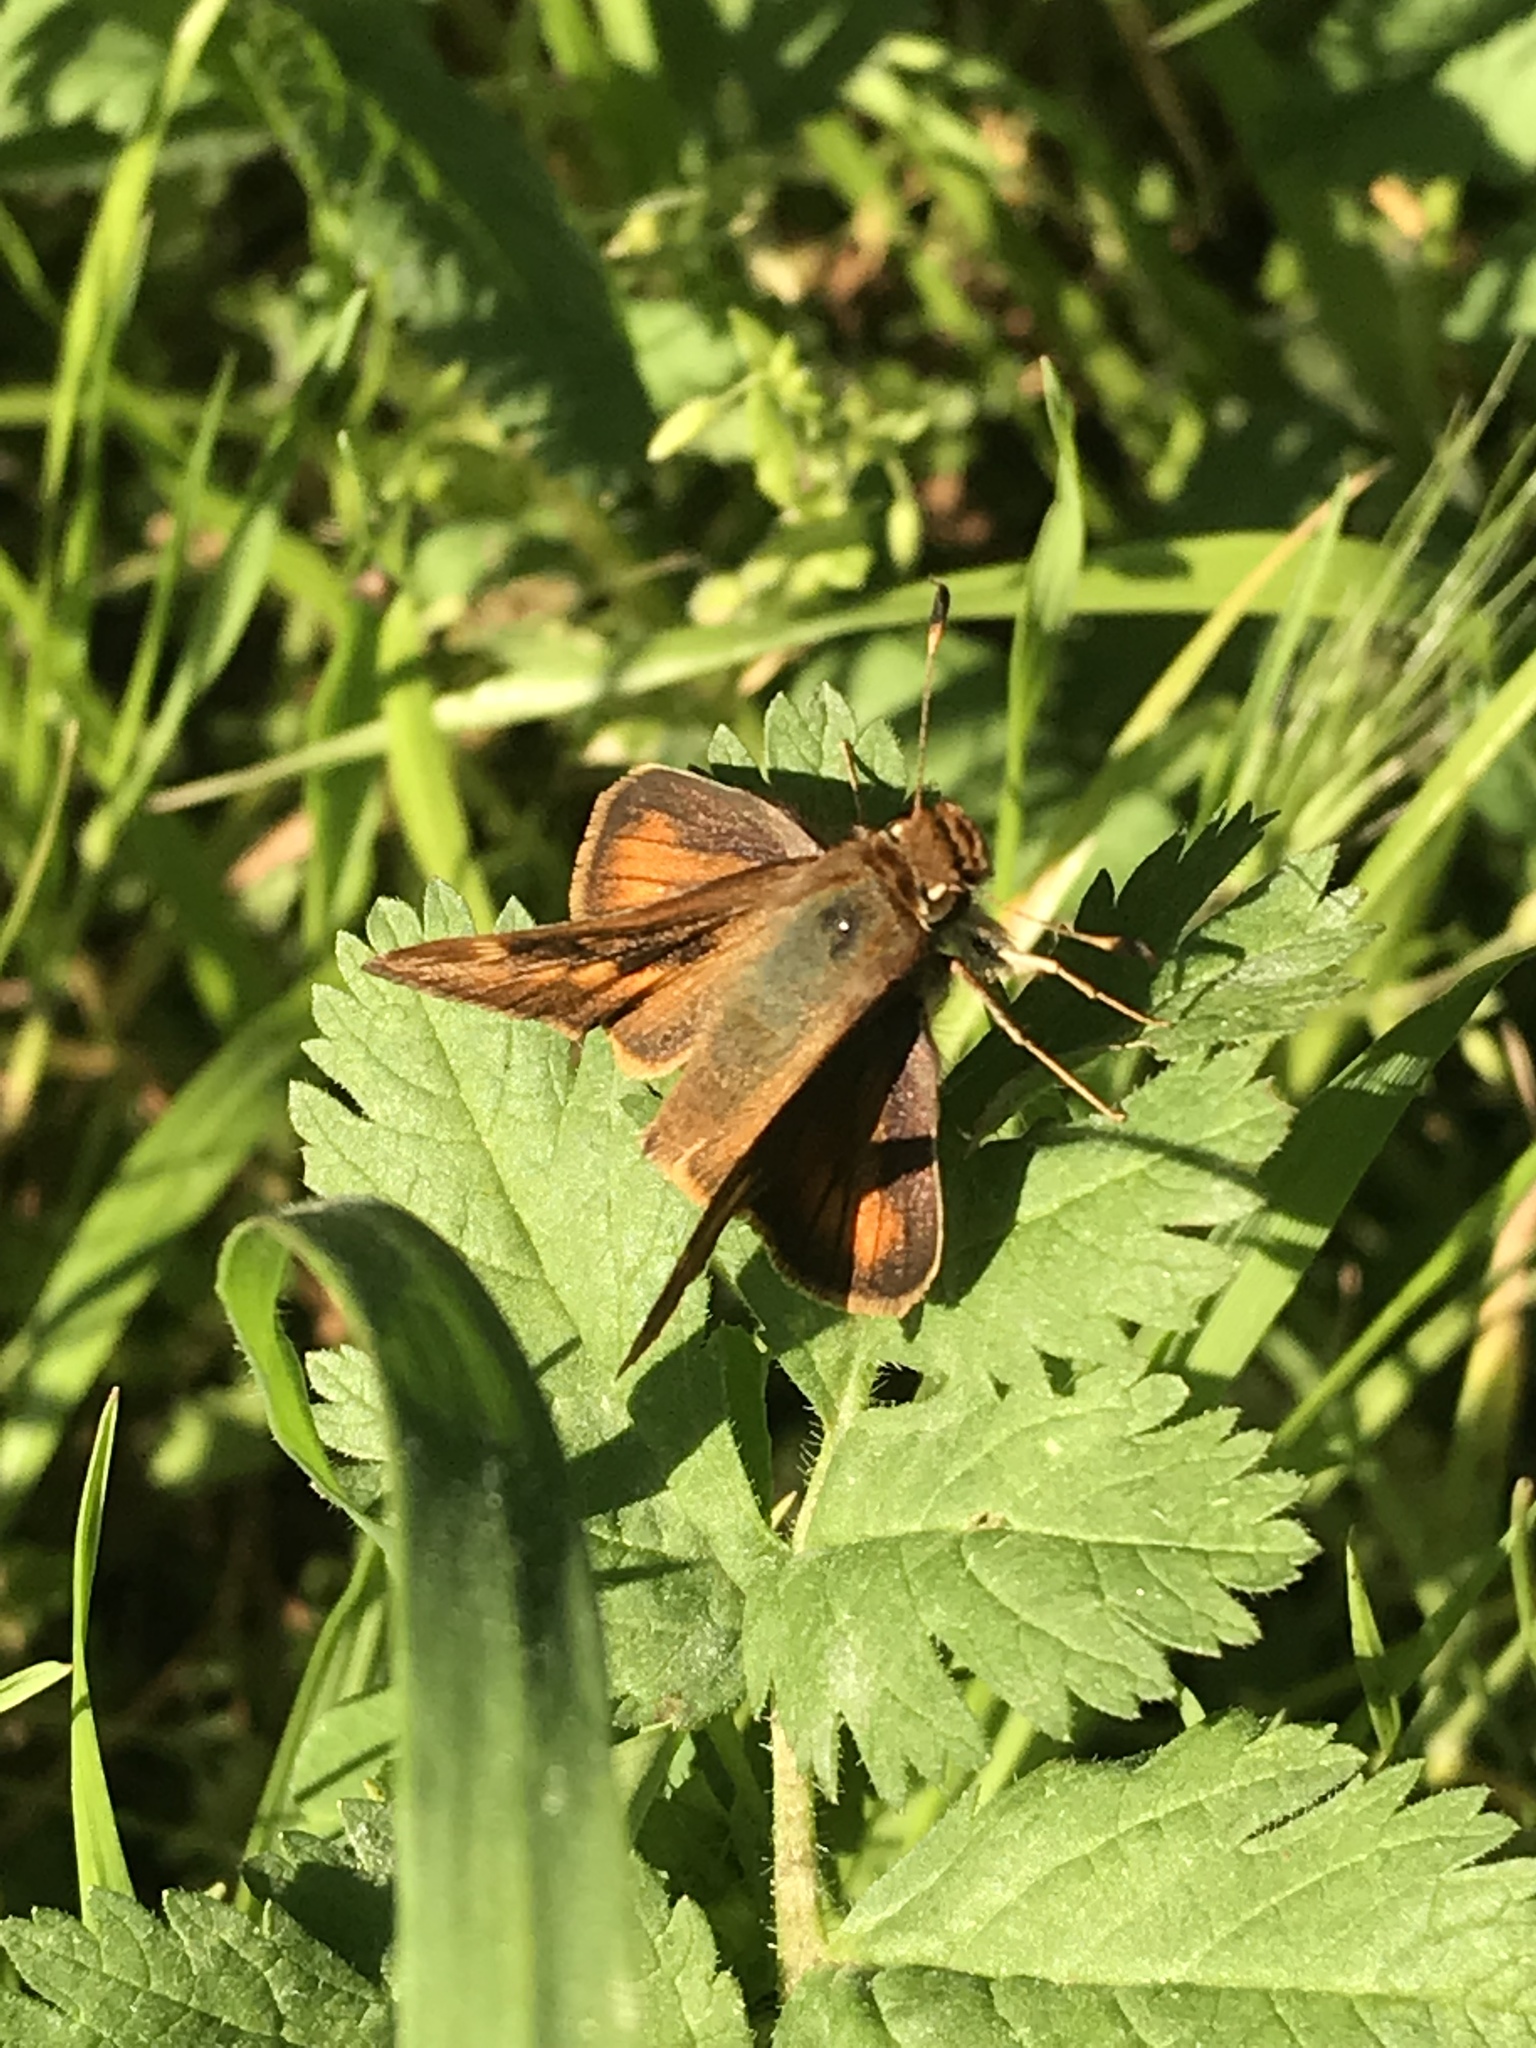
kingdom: Animalia
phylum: Arthropoda
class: Insecta
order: Lepidoptera
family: Hesperiidae
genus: Lon
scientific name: Lon melane
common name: Umber skipper
